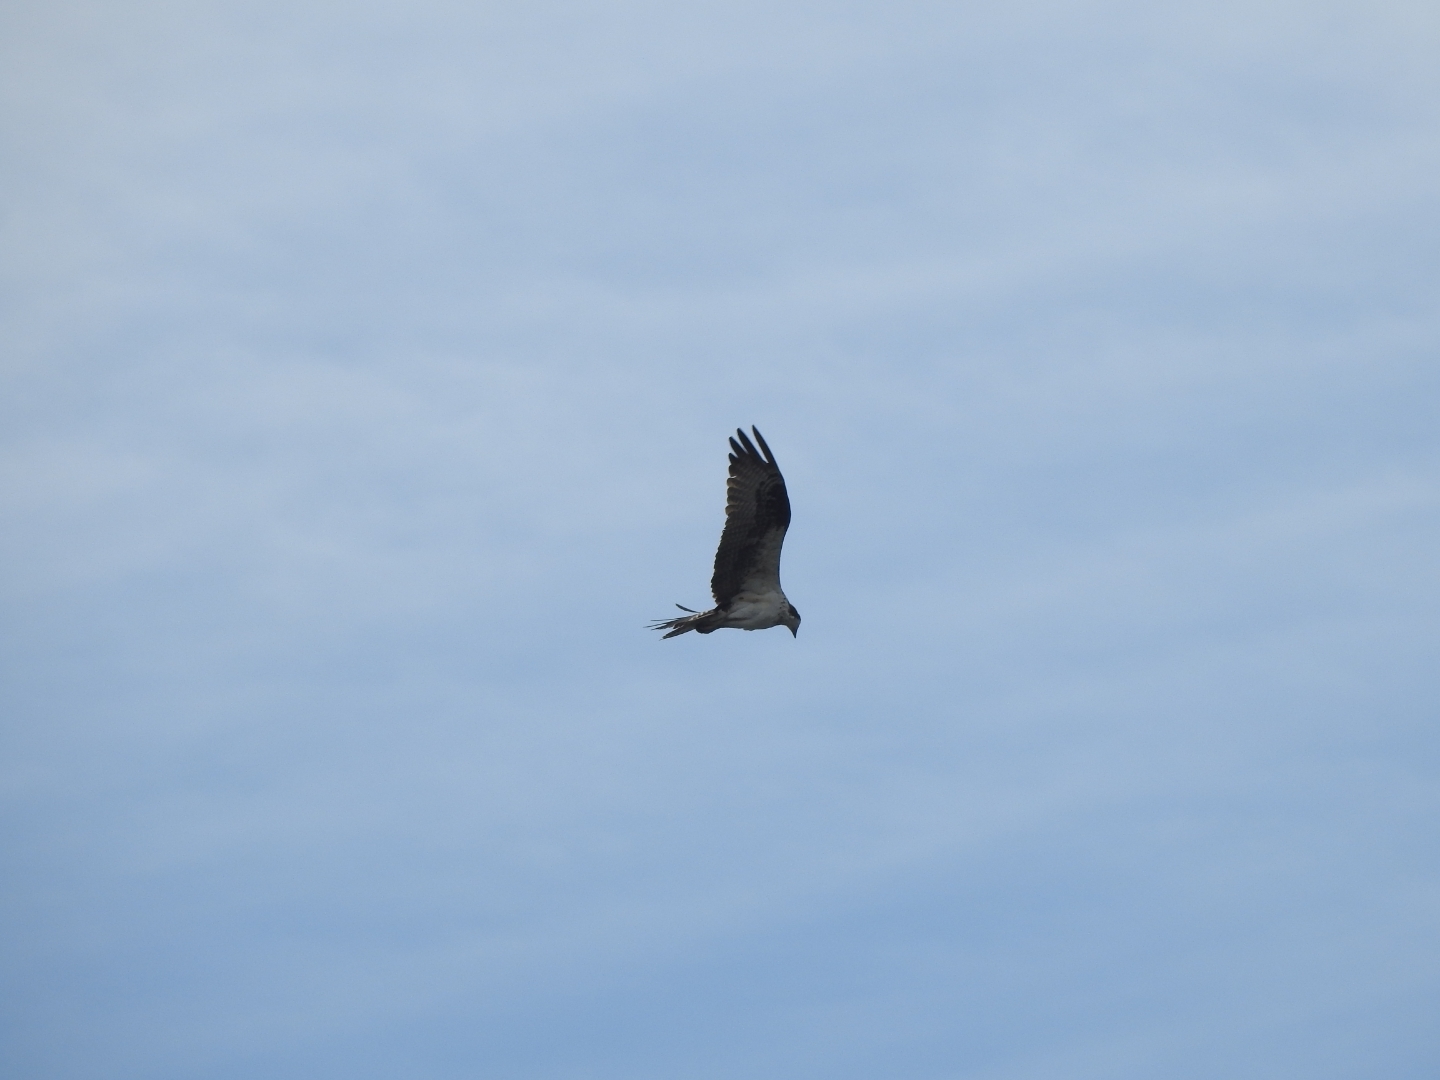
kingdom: Animalia
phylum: Chordata
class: Aves
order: Accipitriformes
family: Pandionidae
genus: Pandion
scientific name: Pandion haliaetus
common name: Osprey
